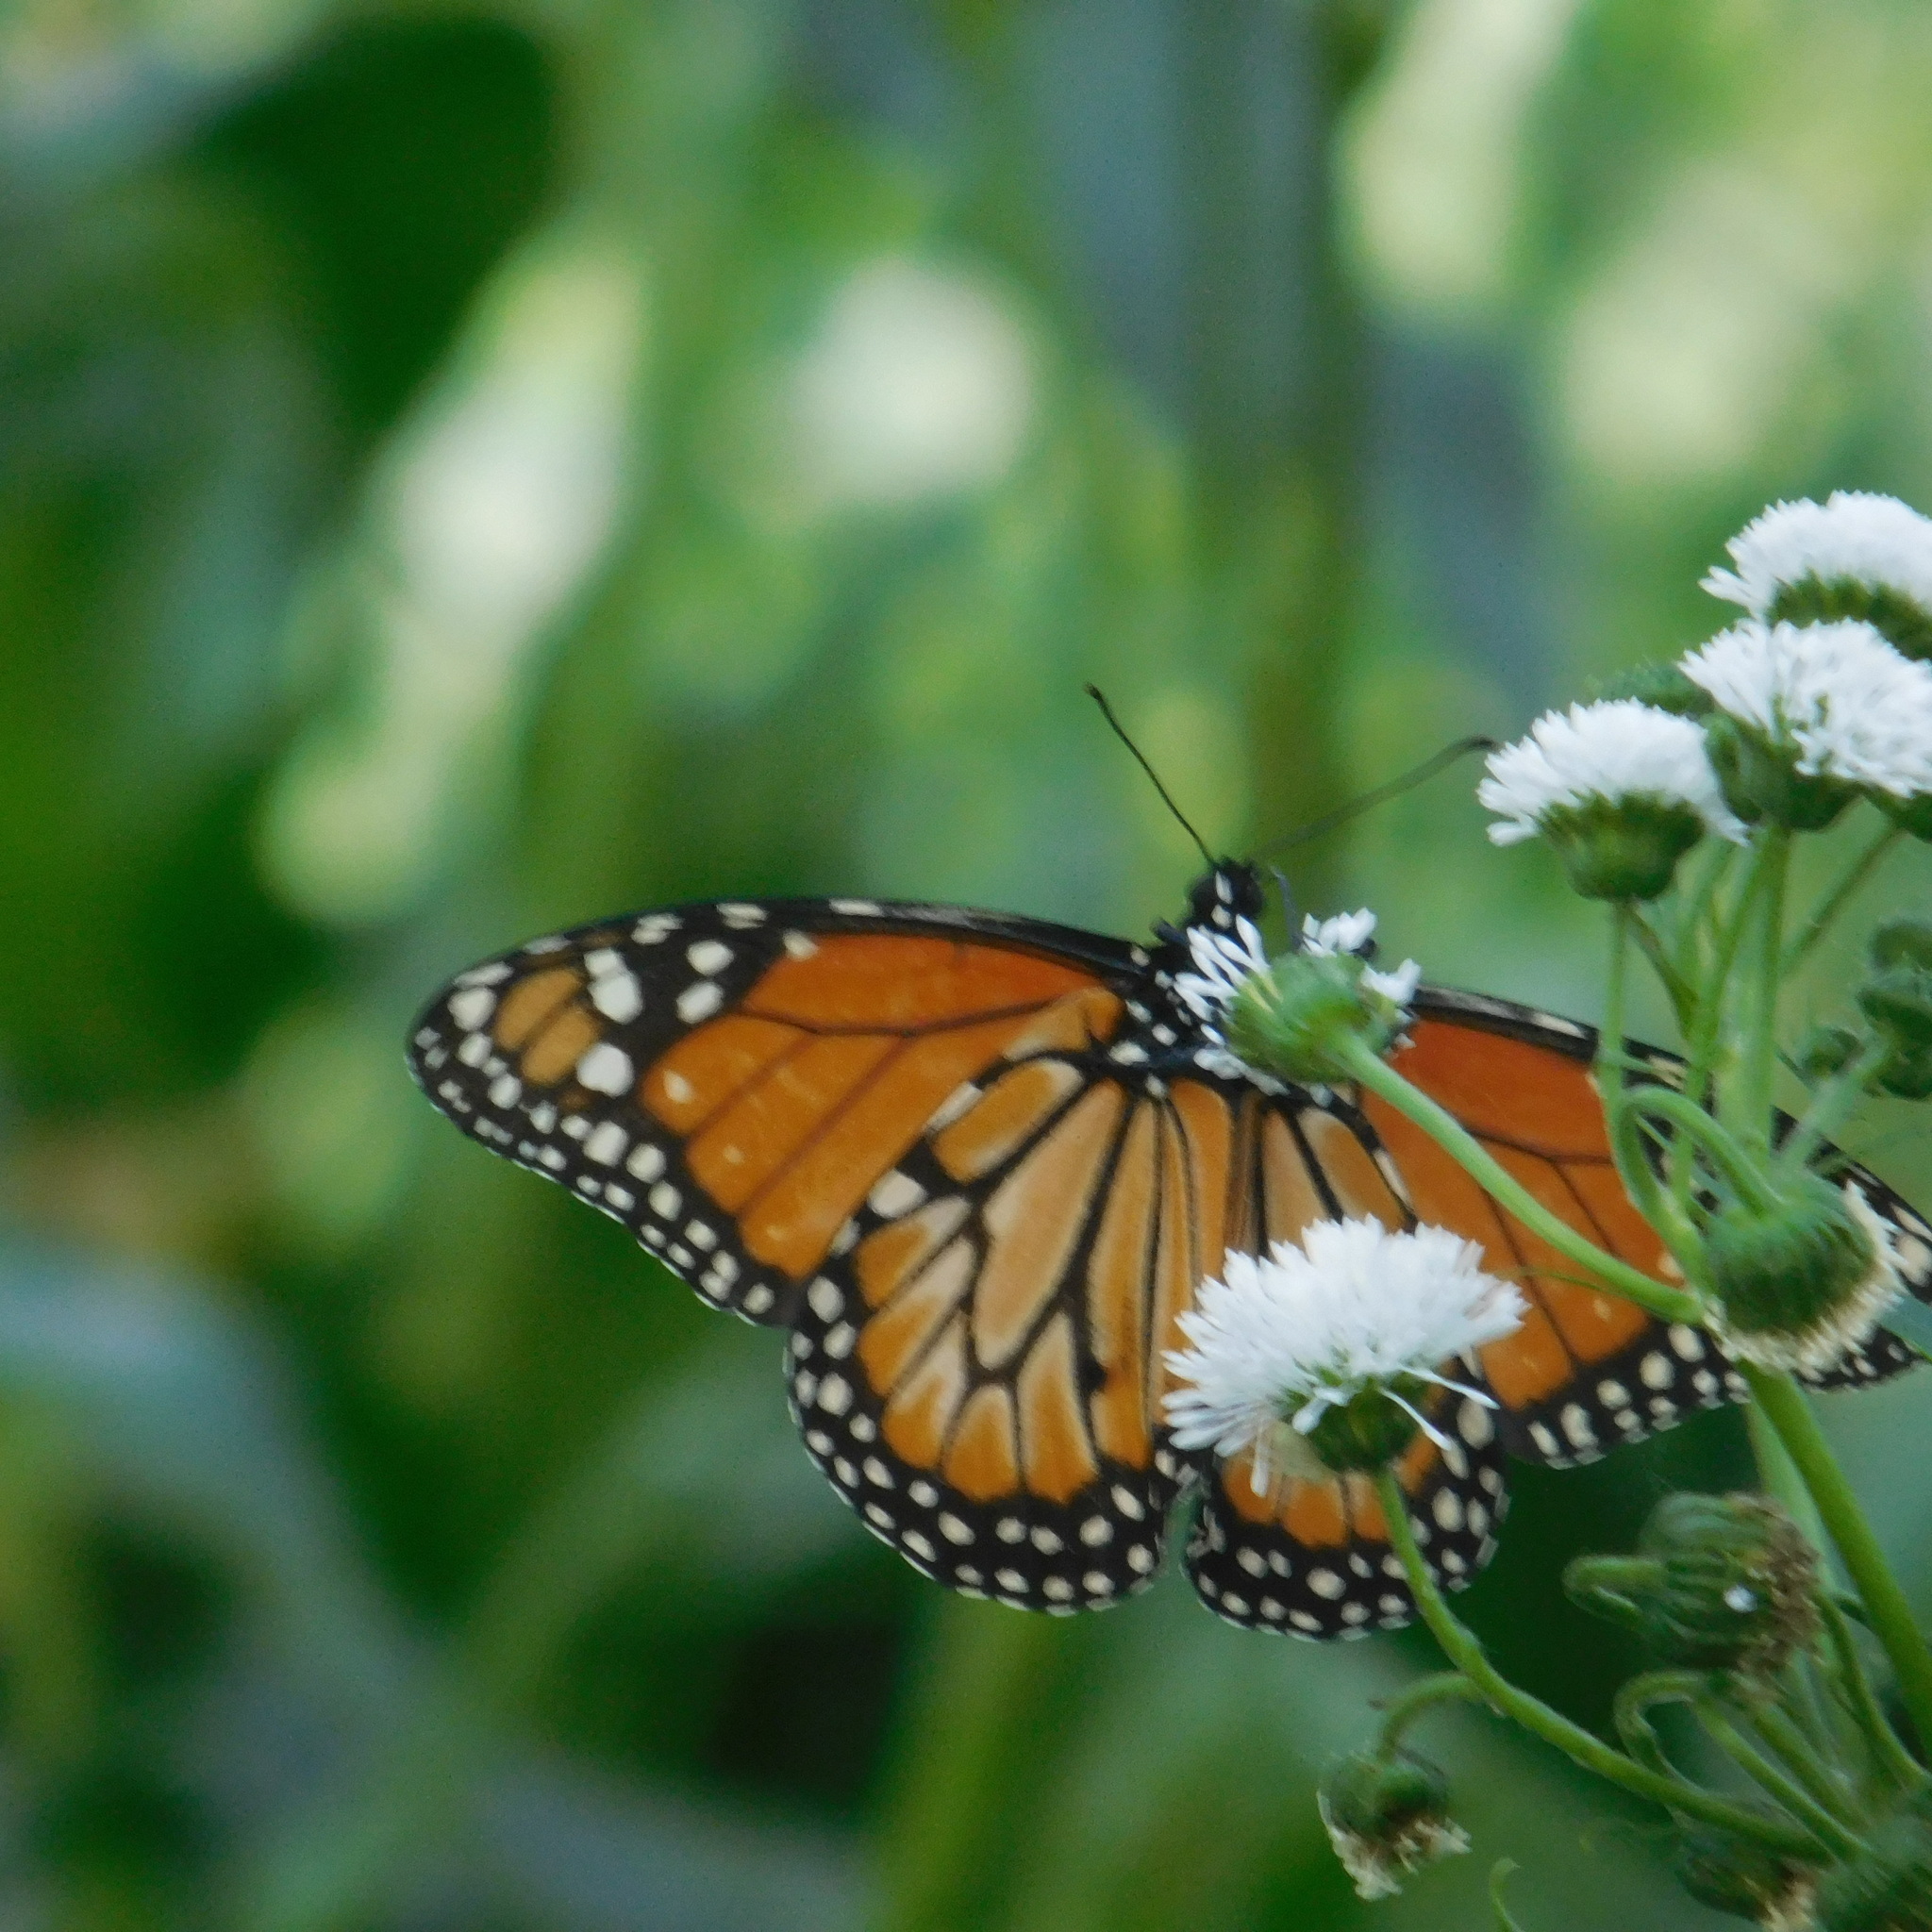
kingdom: Animalia
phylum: Arthropoda
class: Insecta
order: Lepidoptera
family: Nymphalidae
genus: Danaus
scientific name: Danaus erippus
